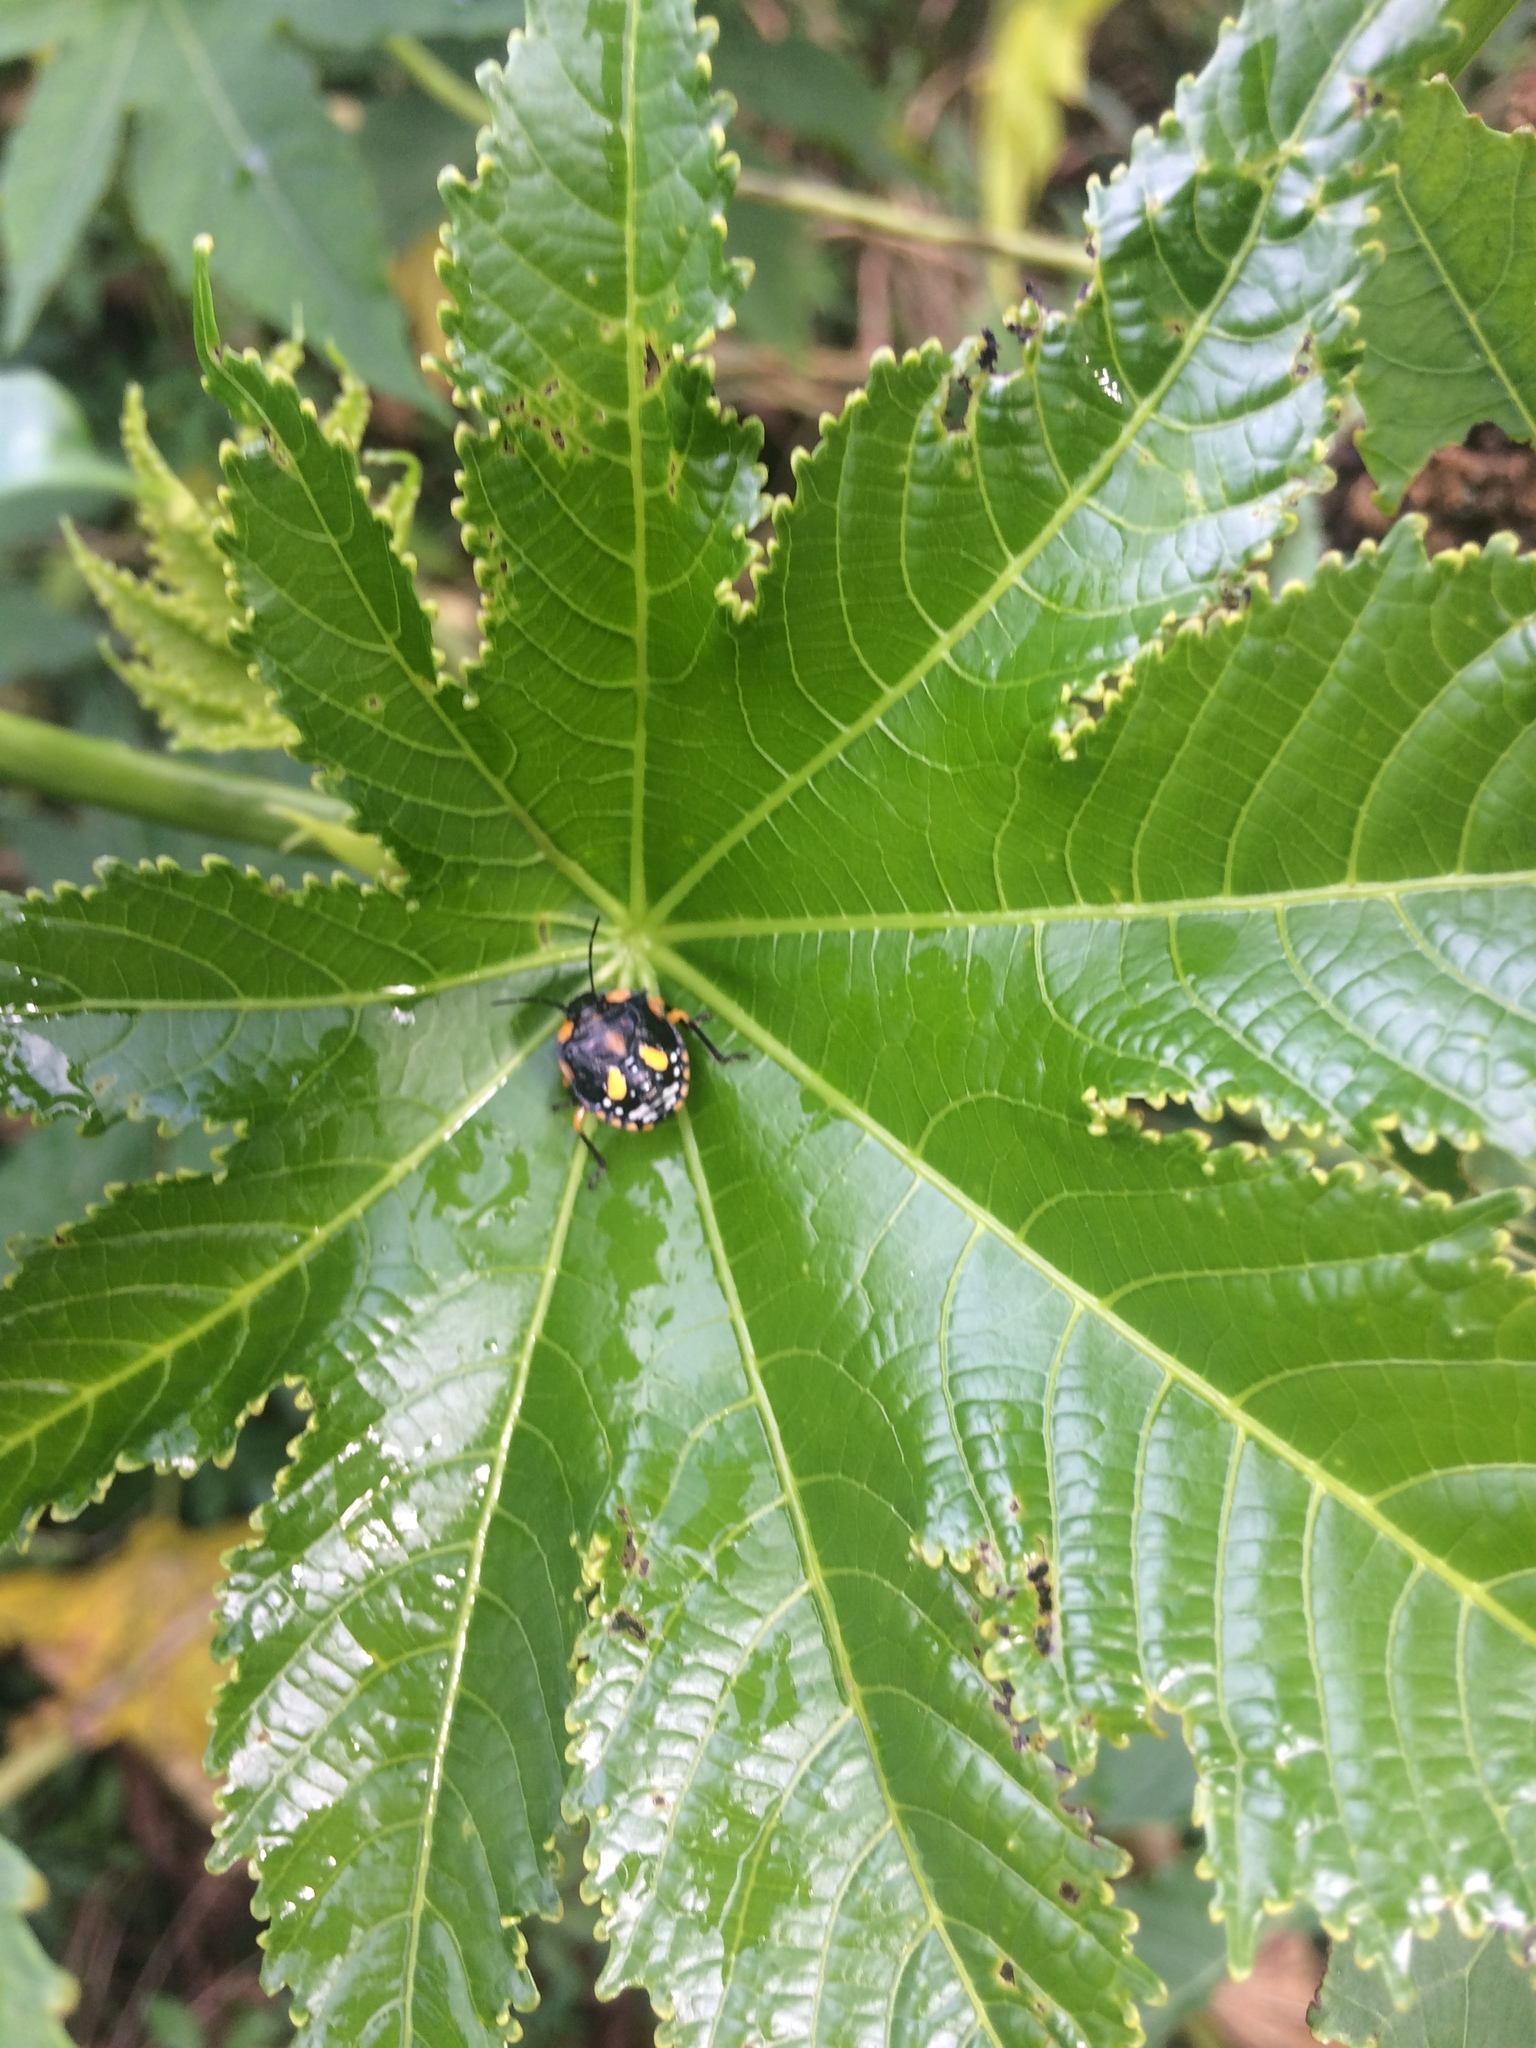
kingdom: Plantae
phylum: Tracheophyta
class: Magnoliopsida
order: Malpighiales
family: Euphorbiaceae
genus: Ricinus
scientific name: Ricinus communis
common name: Castor-oil-plant
